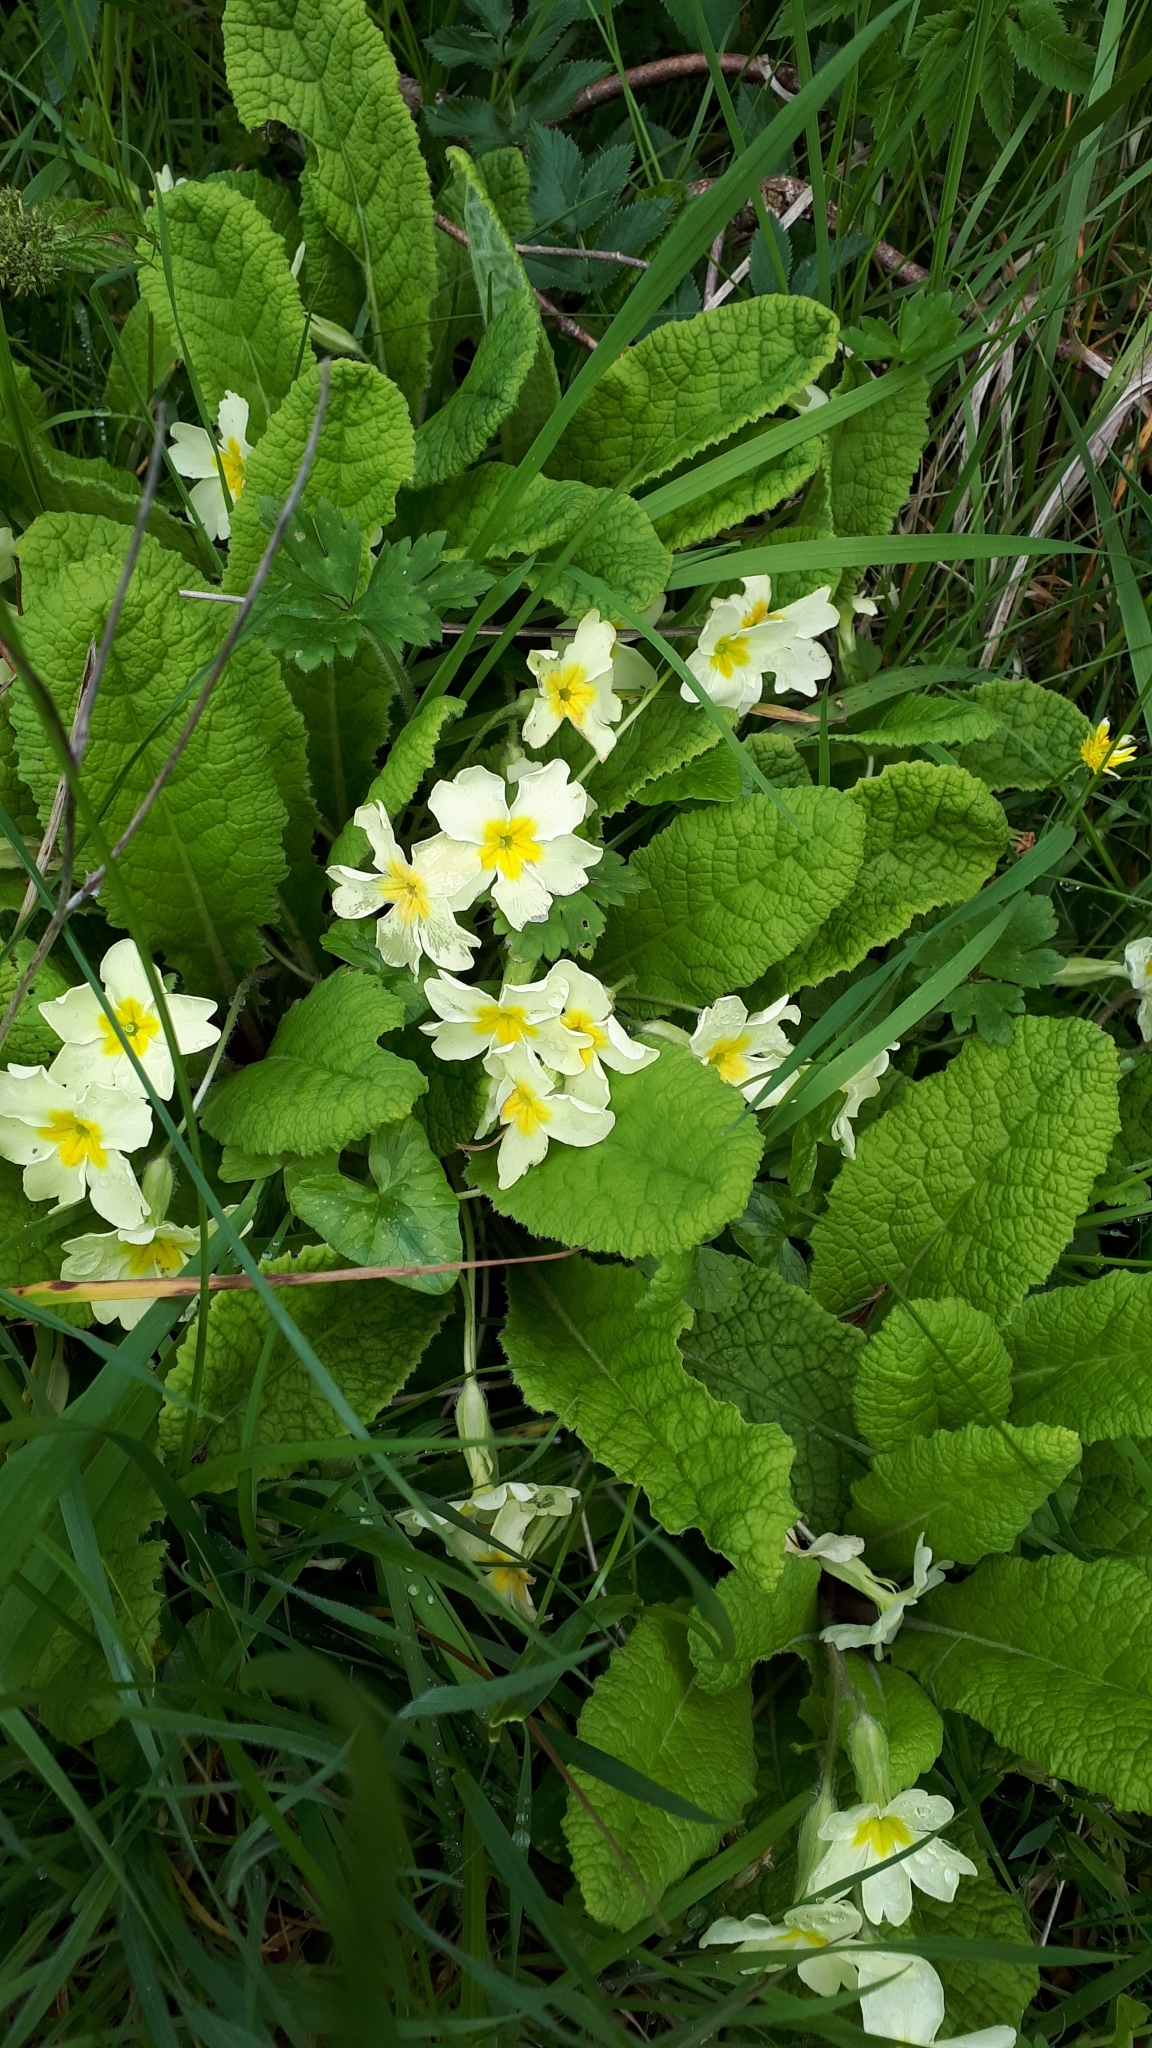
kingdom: Plantae
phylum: Tracheophyta
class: Magnoliopsida
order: Ericales
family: Primulaceae
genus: Primula
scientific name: Primula vulgaris
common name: Primrose
